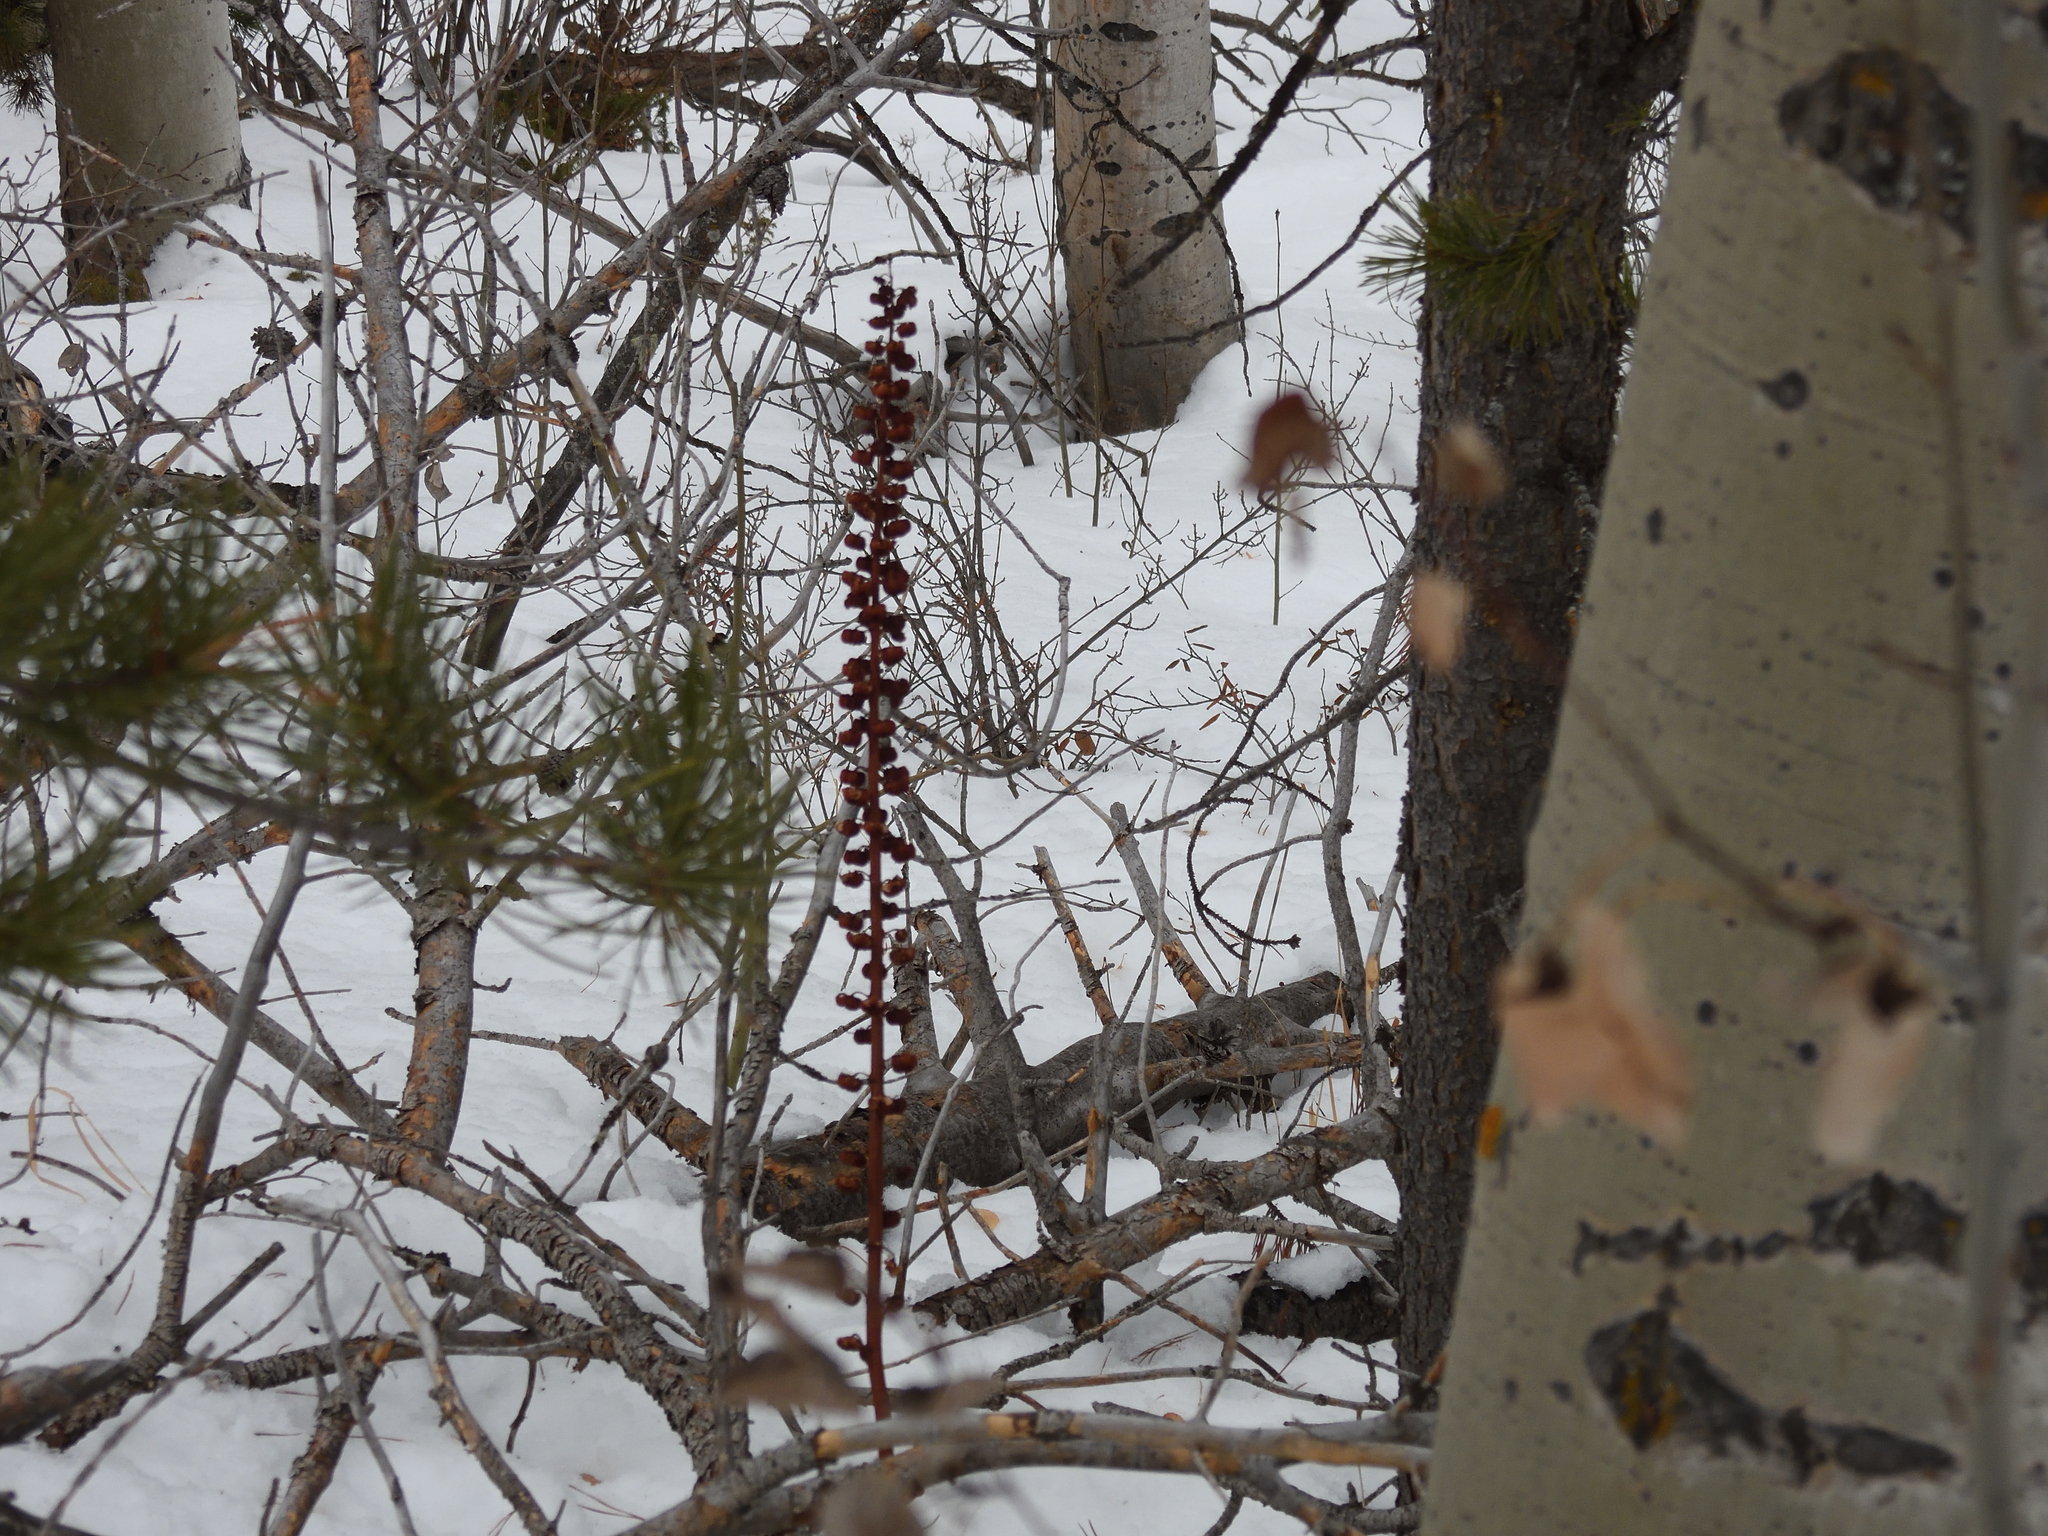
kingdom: Plantae
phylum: Tracheophyta
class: Magnoliopsida
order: Ericales
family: Ericaceae
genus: Pterospora
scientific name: Pterospora andromedea
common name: Giant bird's-nest
